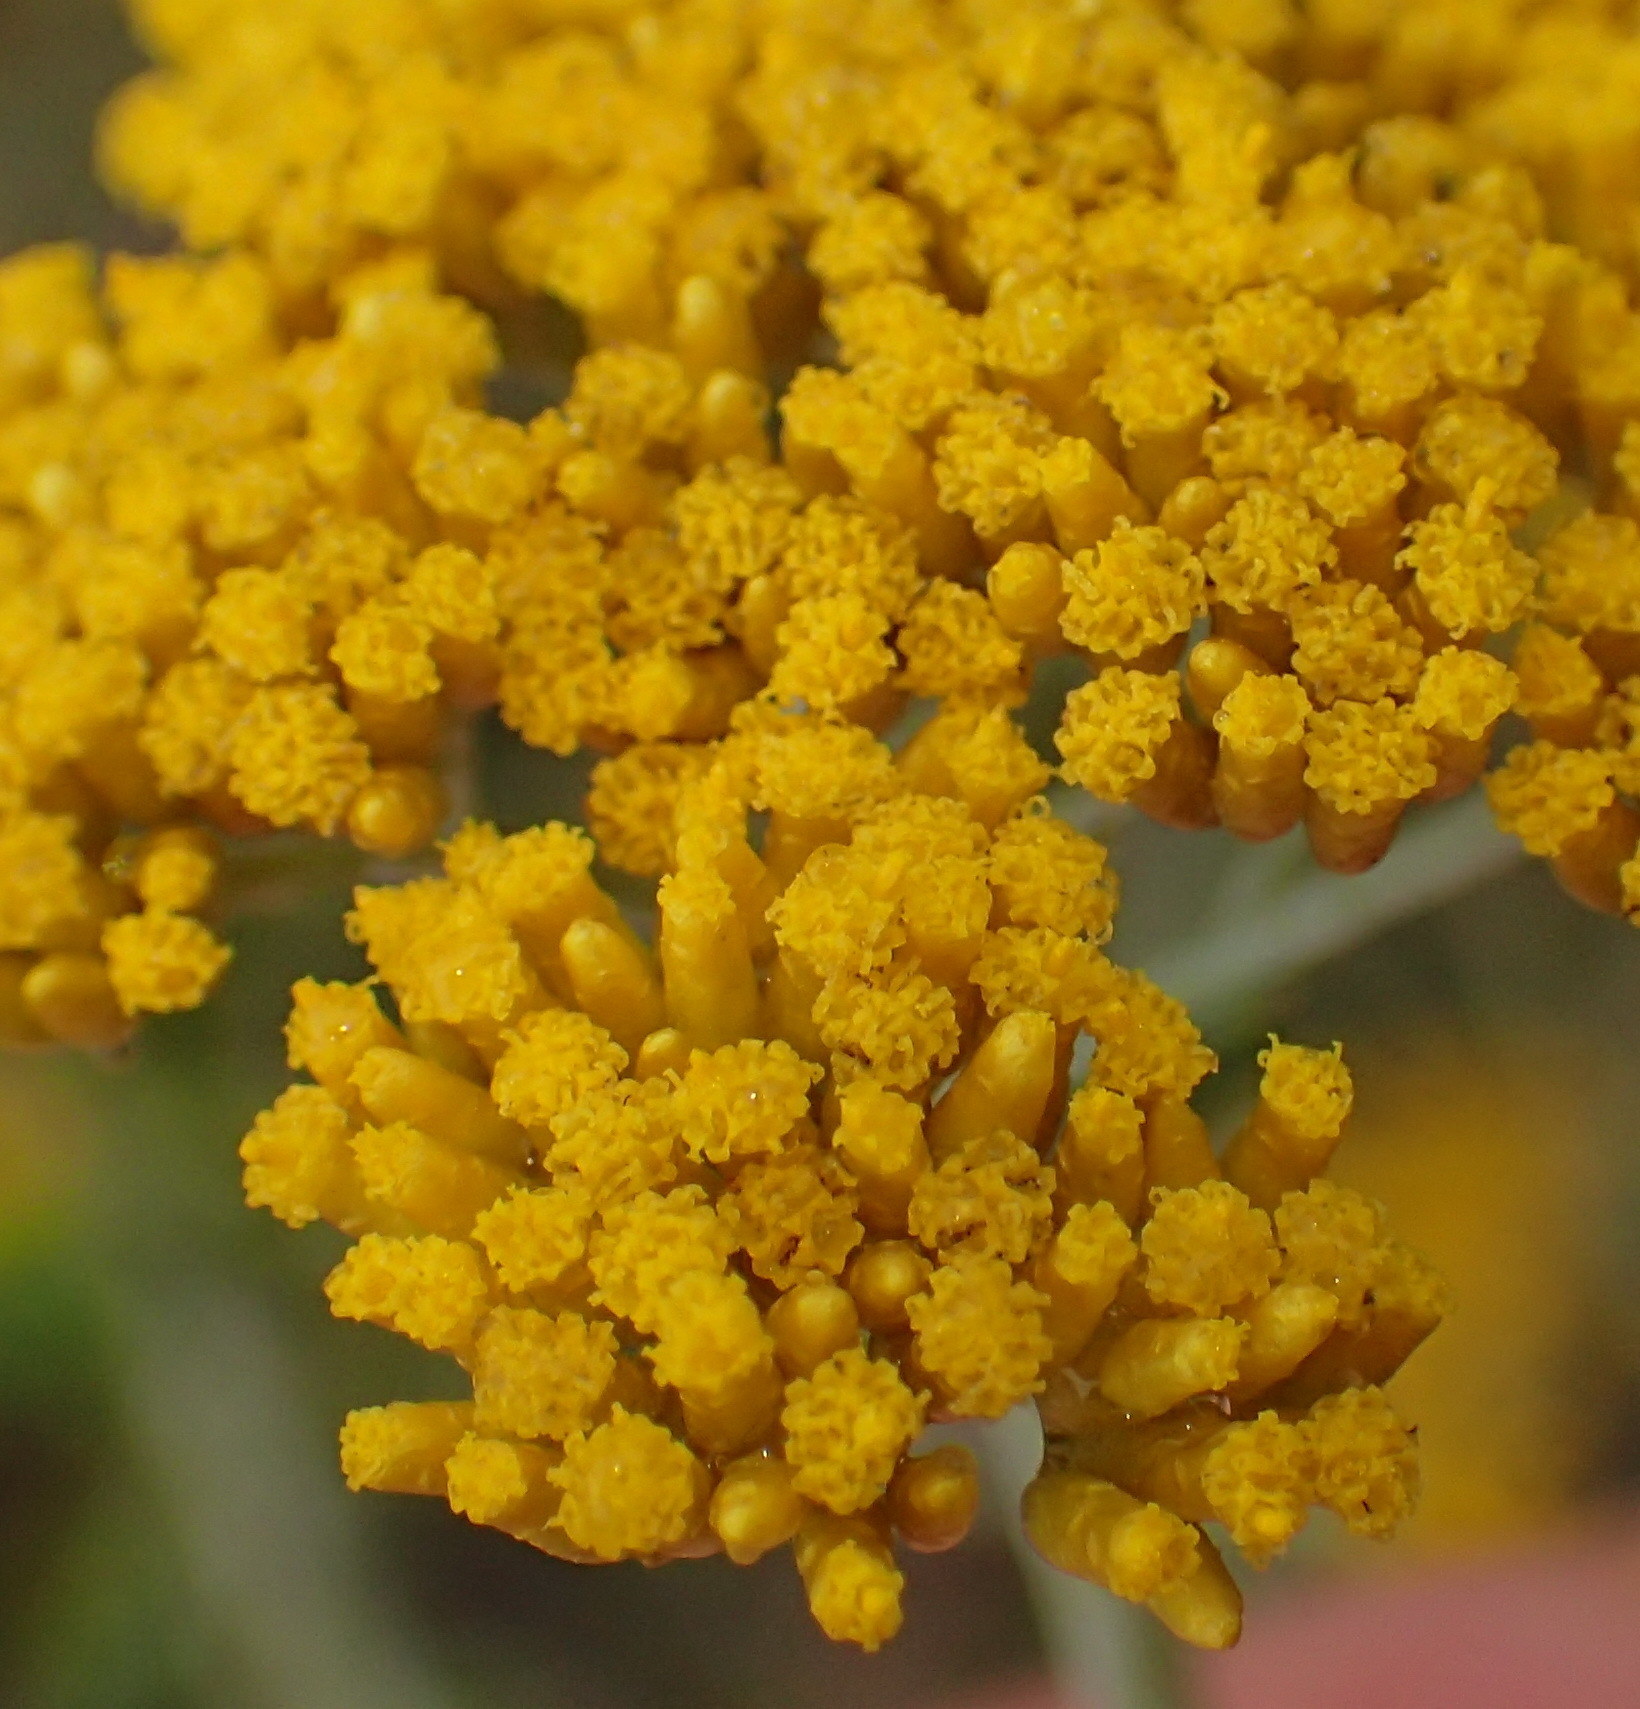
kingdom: Plantae
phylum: Tracheophyta
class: Magnoliopsida
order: Asterales
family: Asteraceae
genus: Helichrysum
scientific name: Helichrysum cymosum
